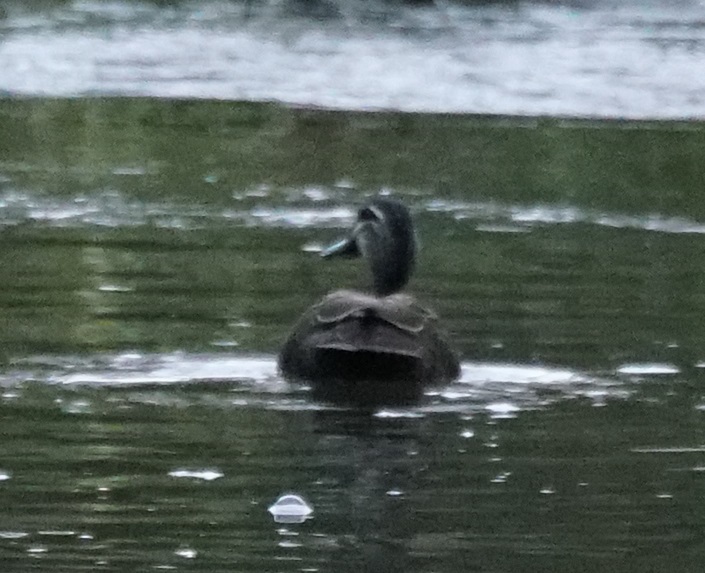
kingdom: Animalia
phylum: Chordata
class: Aves
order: Anseriformes
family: Anatidae
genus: Anas
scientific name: Anas superciliosa
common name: Pacific black duck
